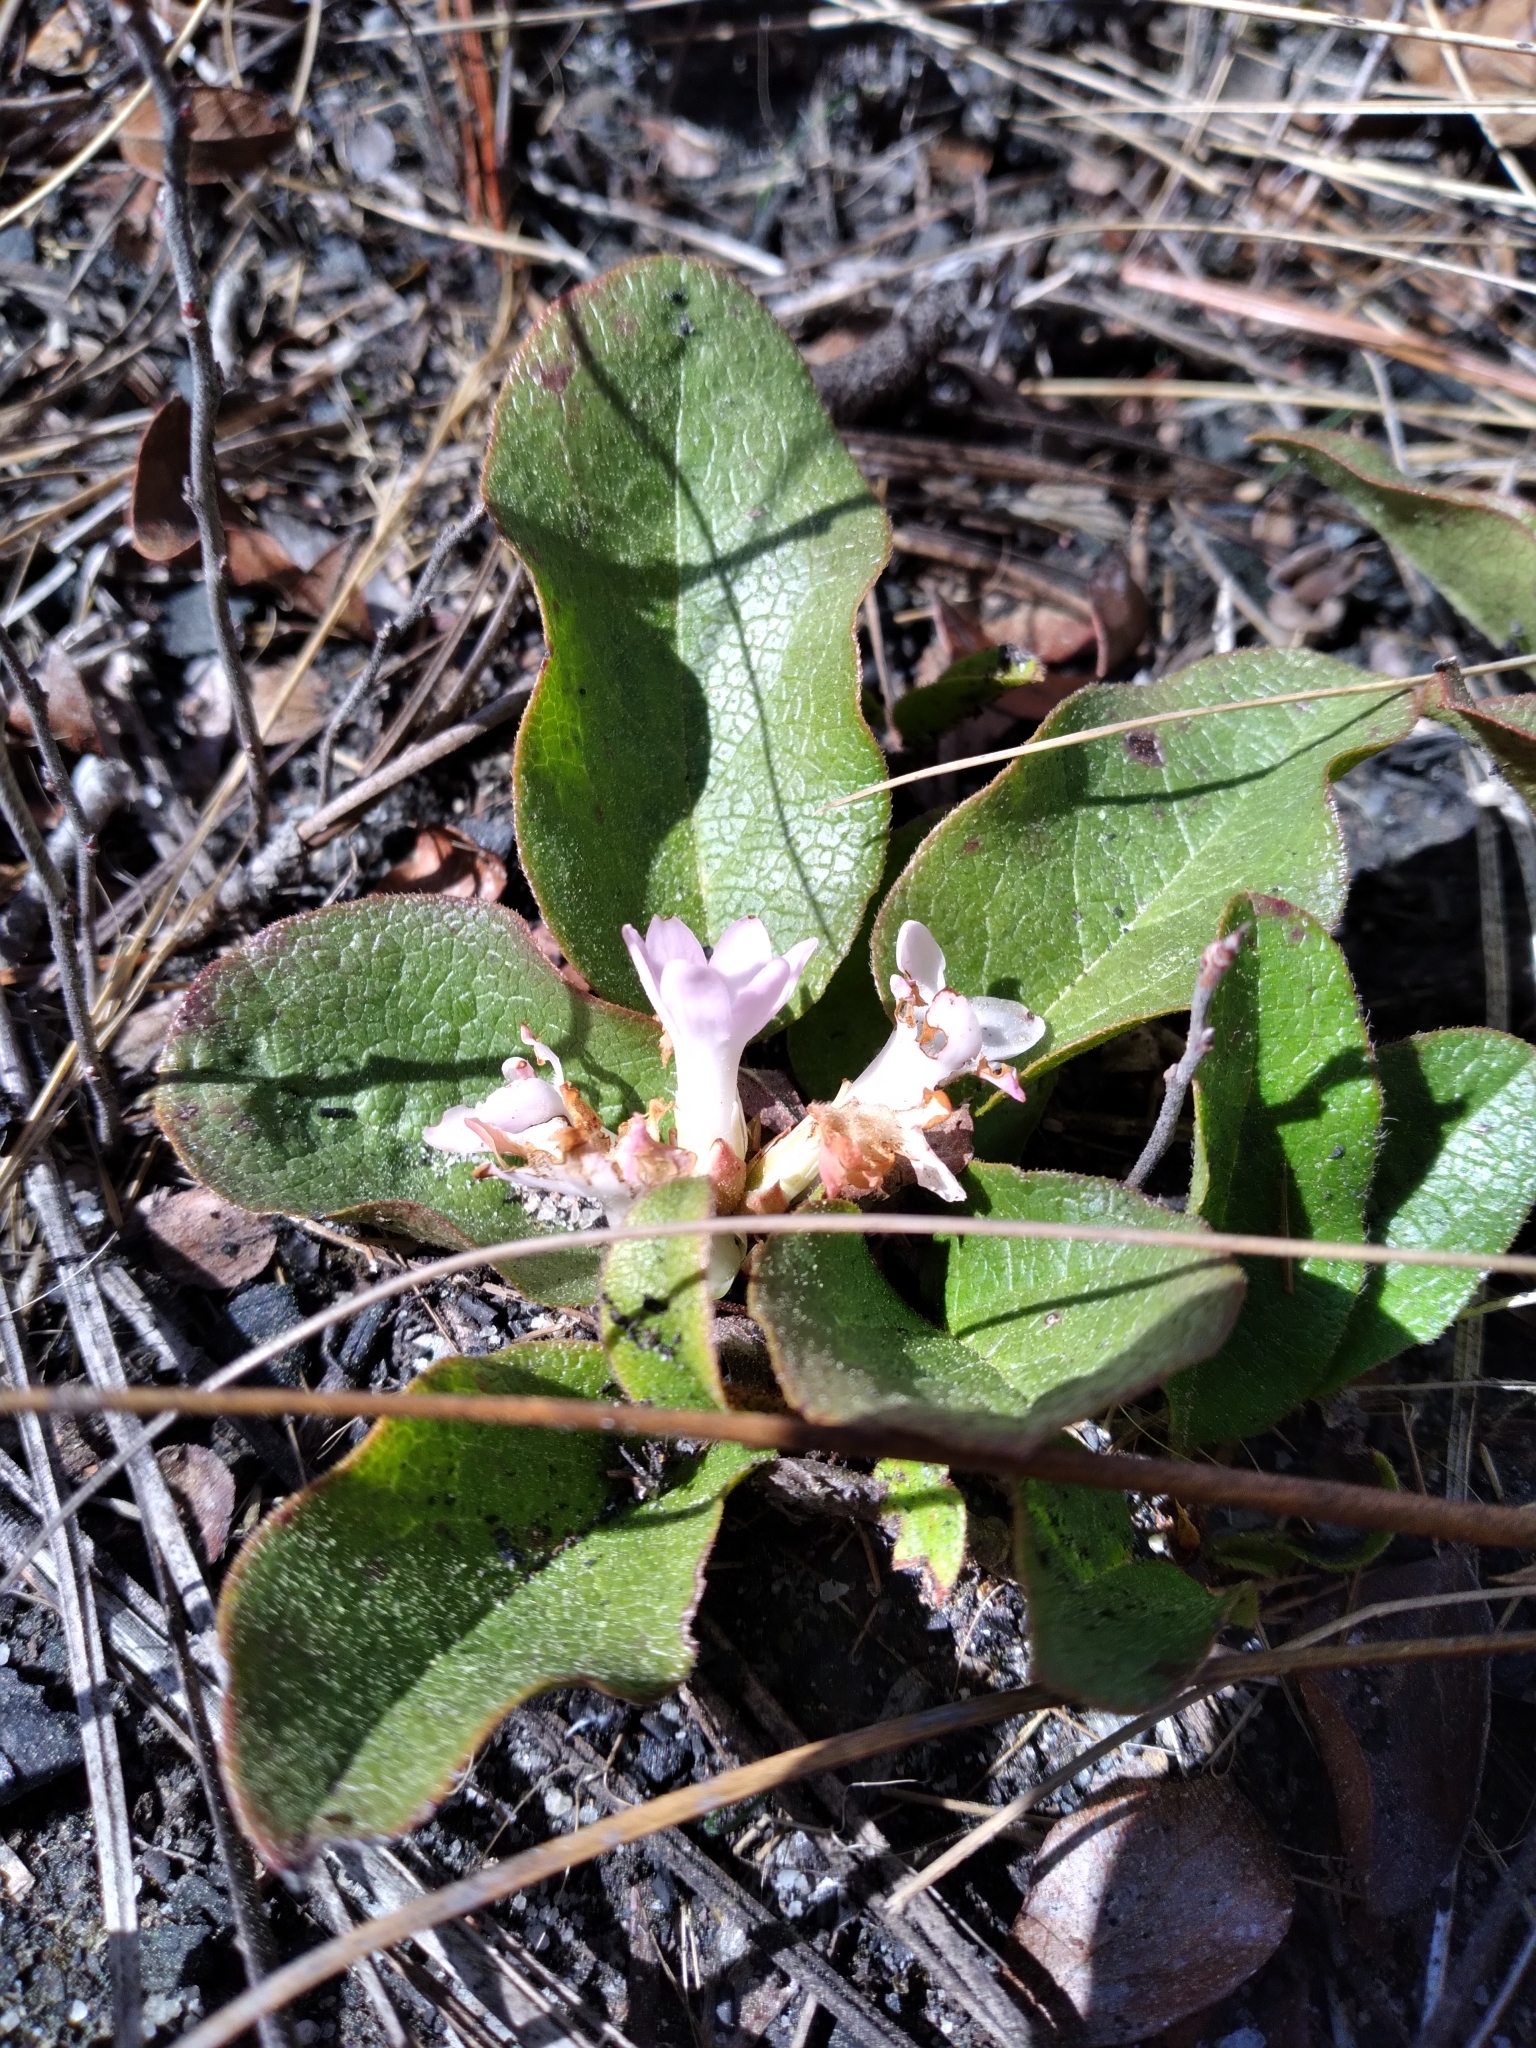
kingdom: Plantae
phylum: Tracheophyta
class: Magnoliopsida
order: Ericales
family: Ericaceae
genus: Epigaea
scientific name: Epigaea repens
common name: Gravelroot
